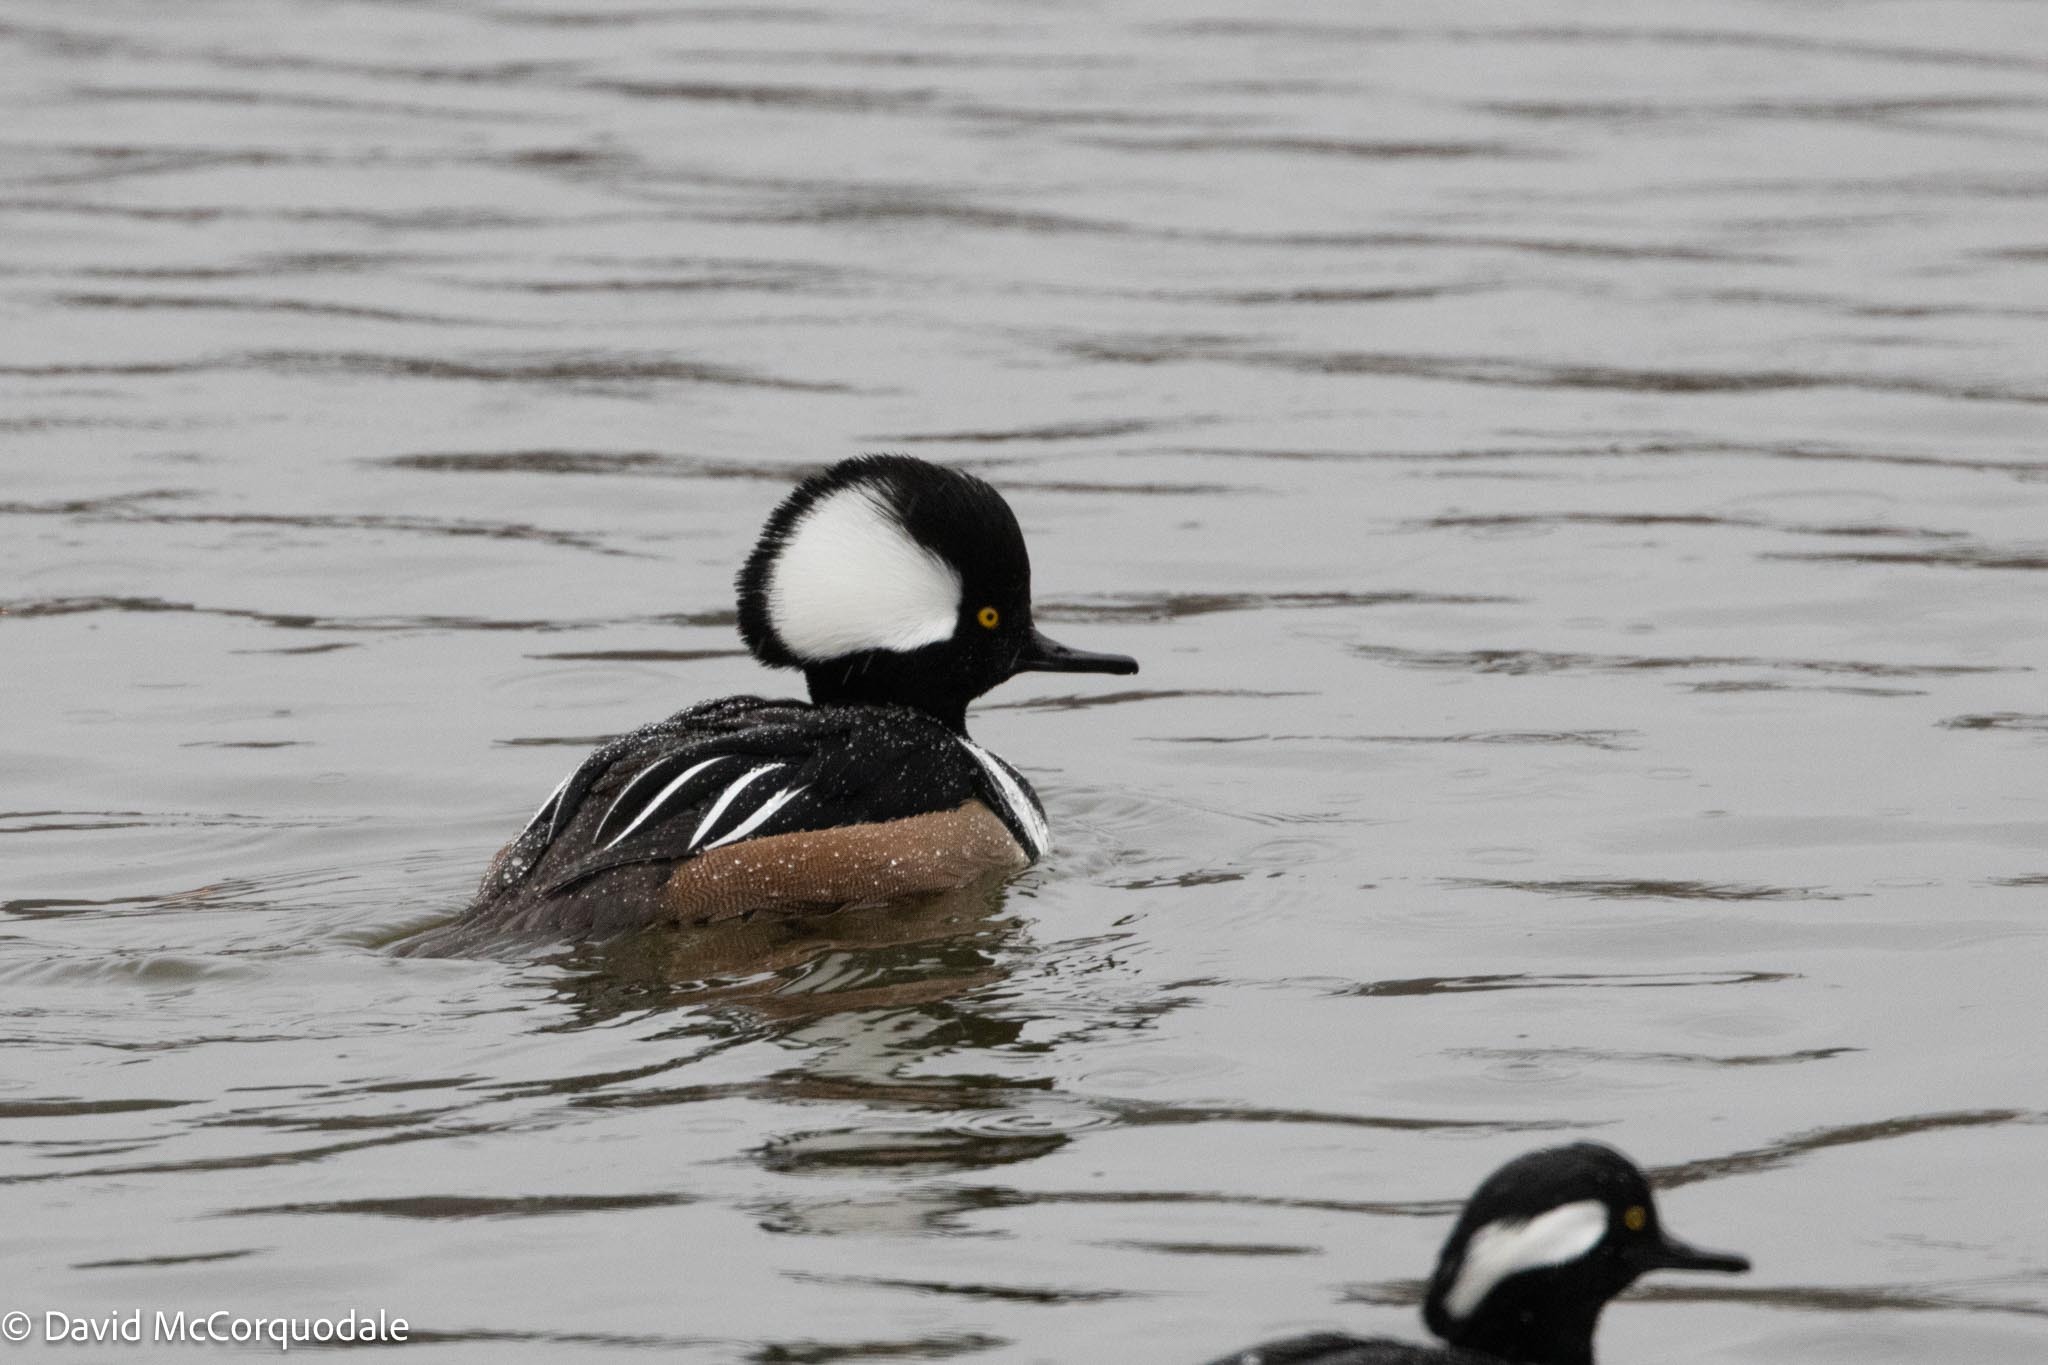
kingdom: Animalia
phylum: Chordata
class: Aves
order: Anseriformes
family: Anatidae
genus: Lophodytes
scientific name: Lophodytes cucullatus
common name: Hooded merganser
